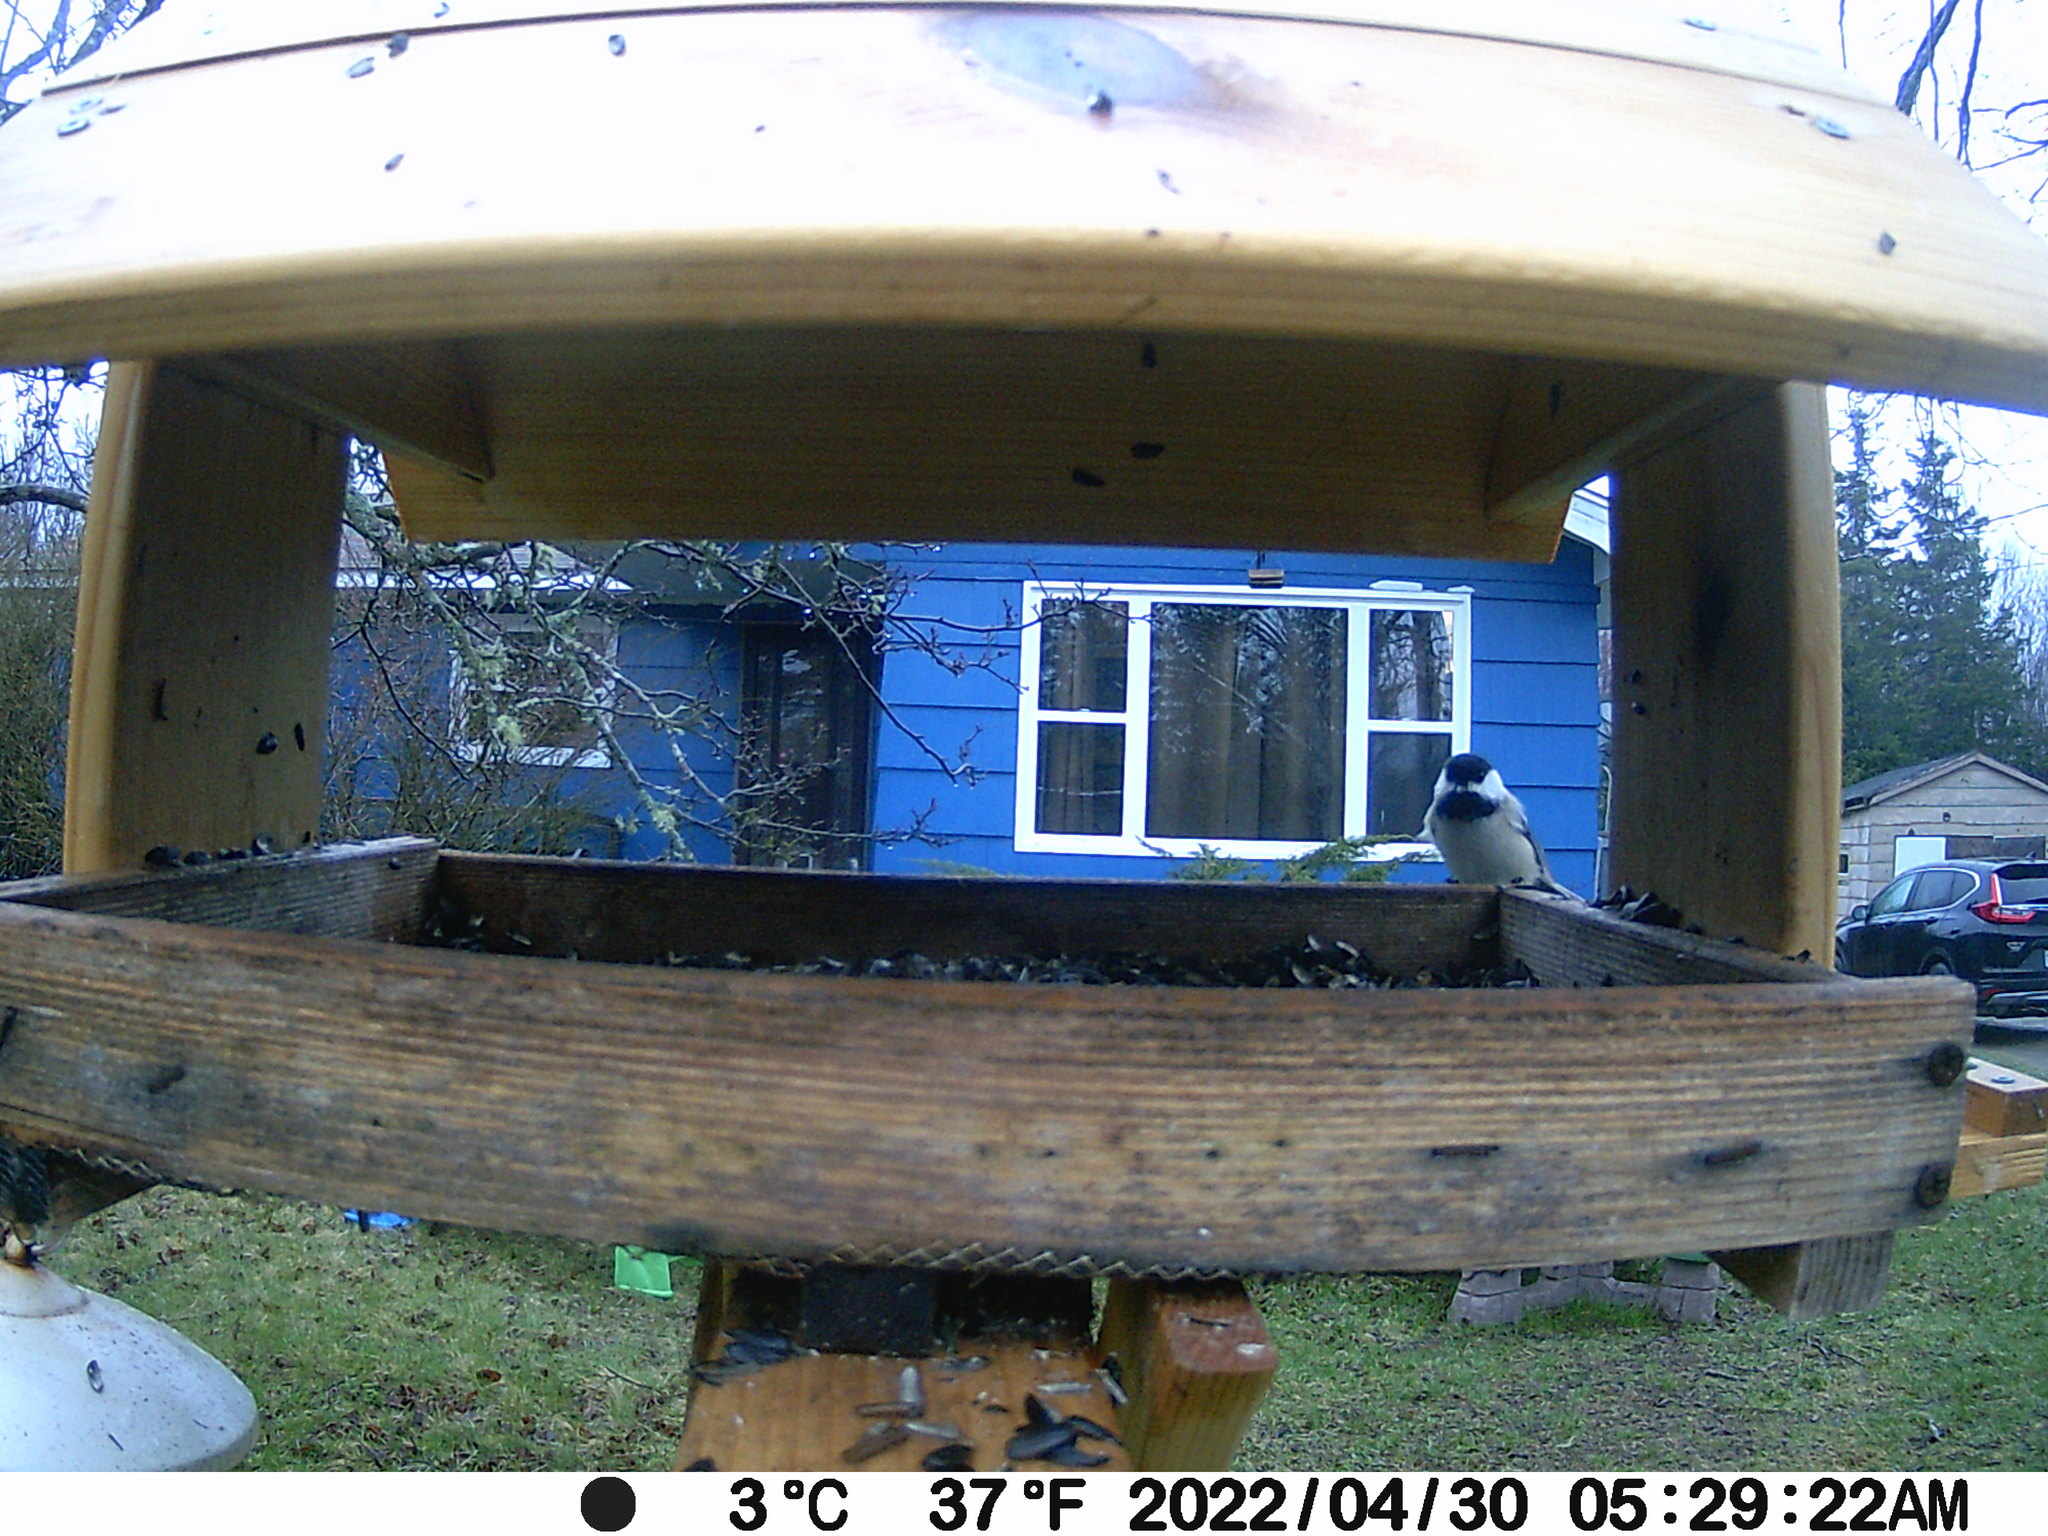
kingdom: Animalia
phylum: Chordata
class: Aves
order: Passeriformes
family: Paridae
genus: Poecile
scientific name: Poecile atricapillus
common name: Black-capped chickadee
